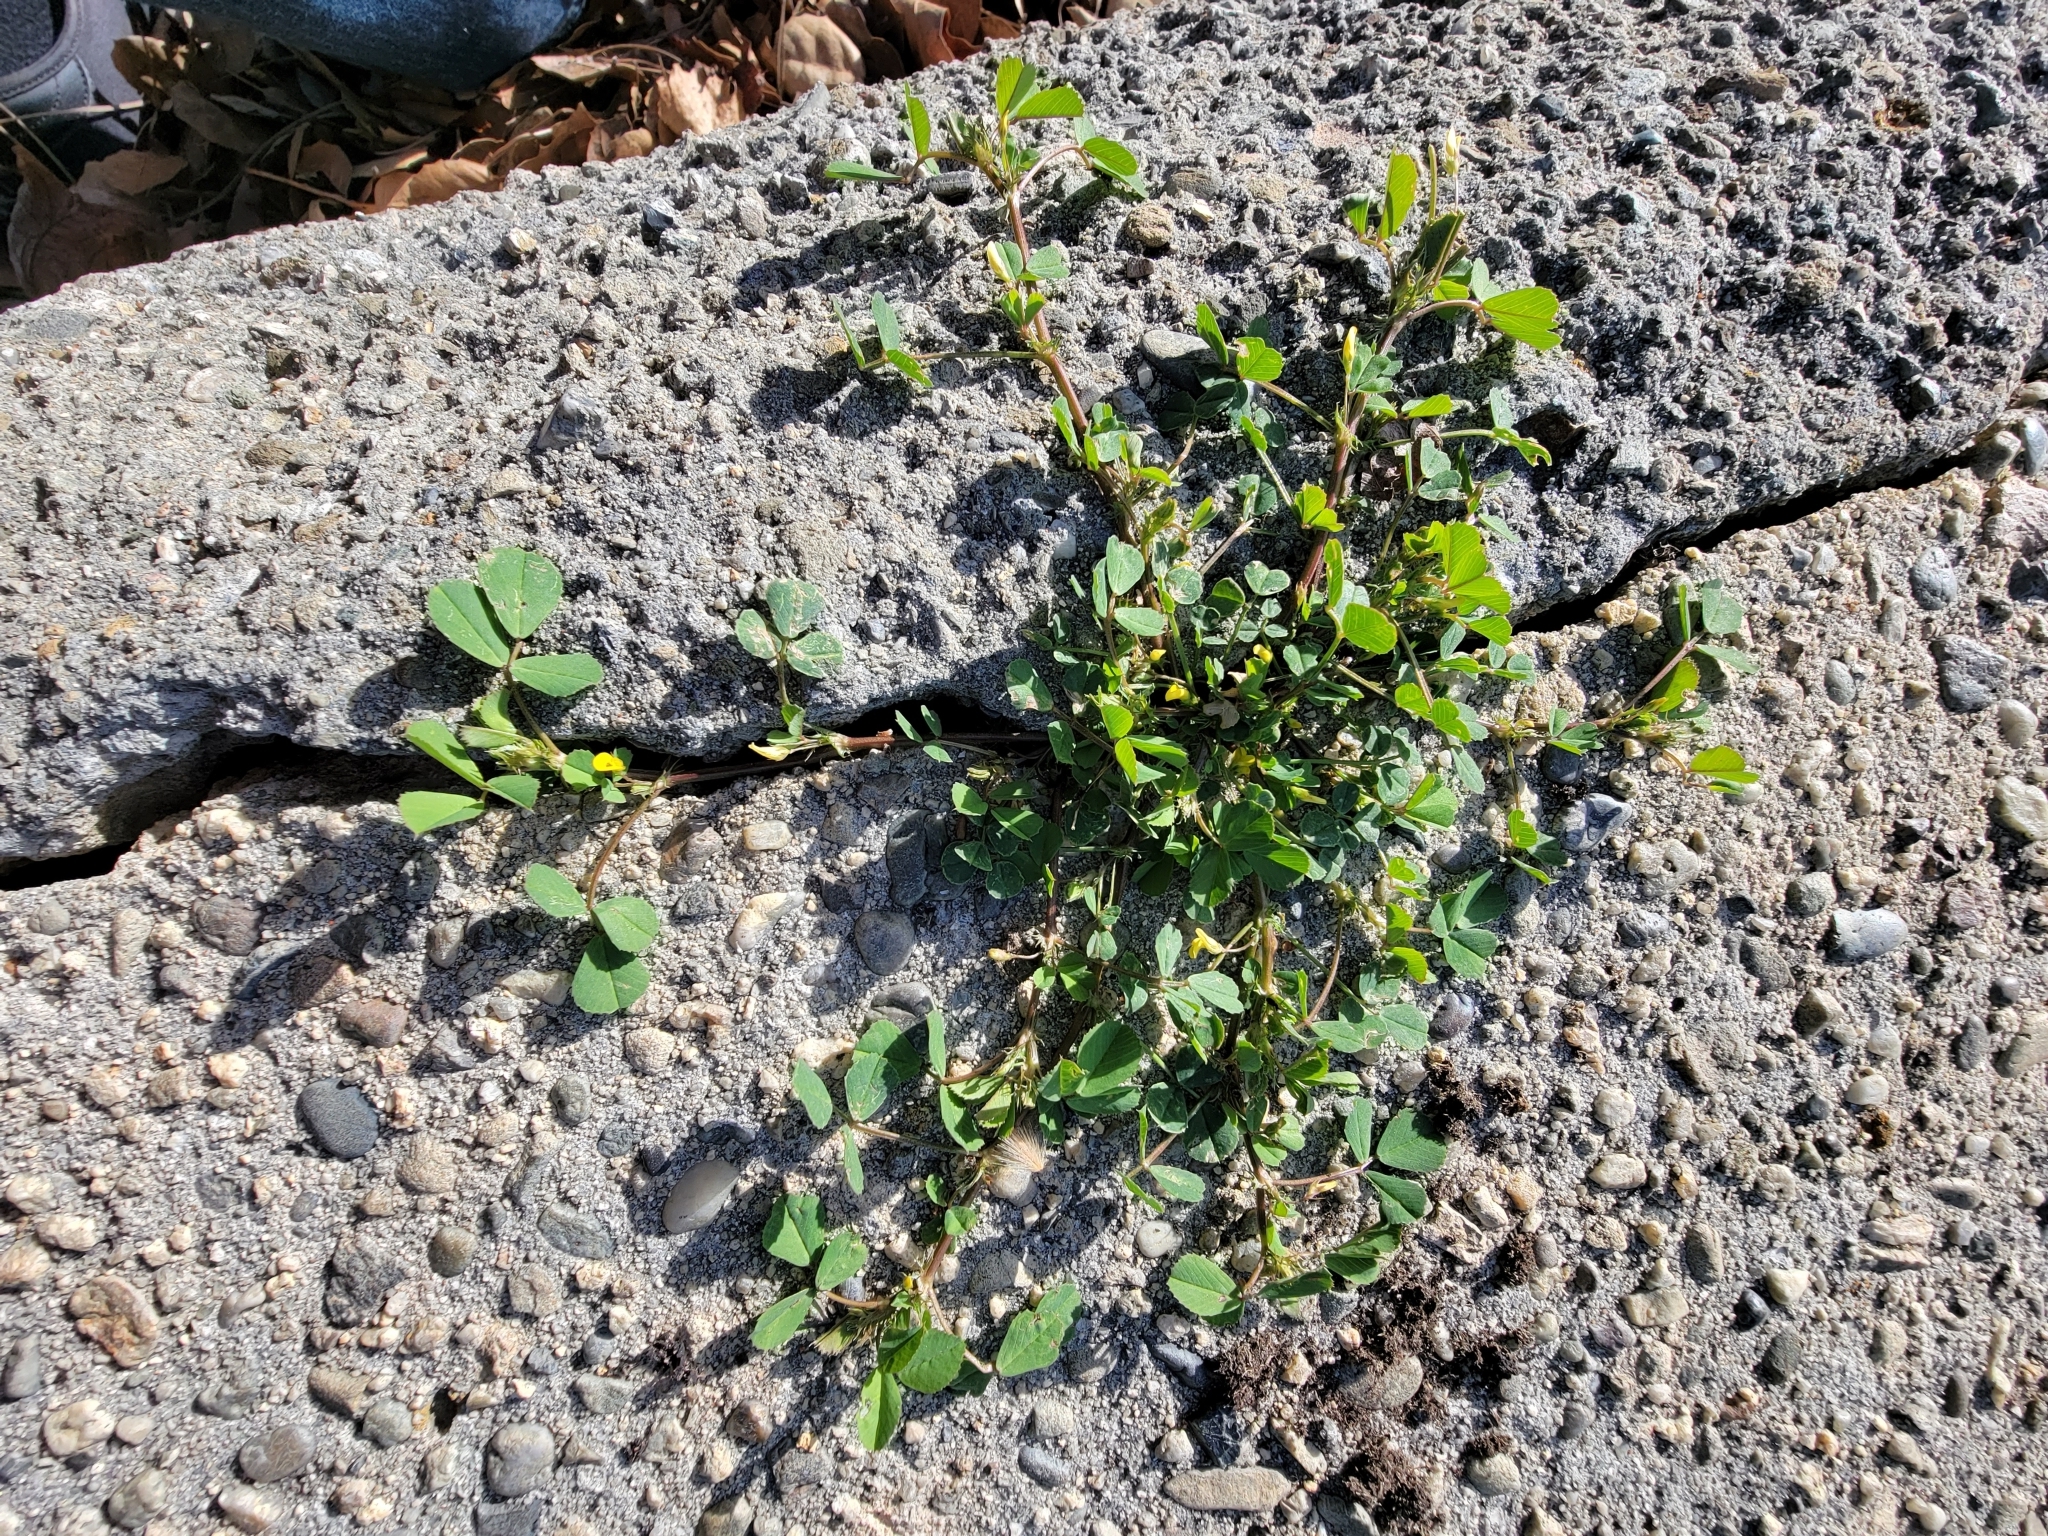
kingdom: Plantae
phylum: Tracheophyta
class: Magnoliopsida
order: Fabales
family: Fabaceae
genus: Medicago
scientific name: Medicago polymorpha
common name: Burclover
